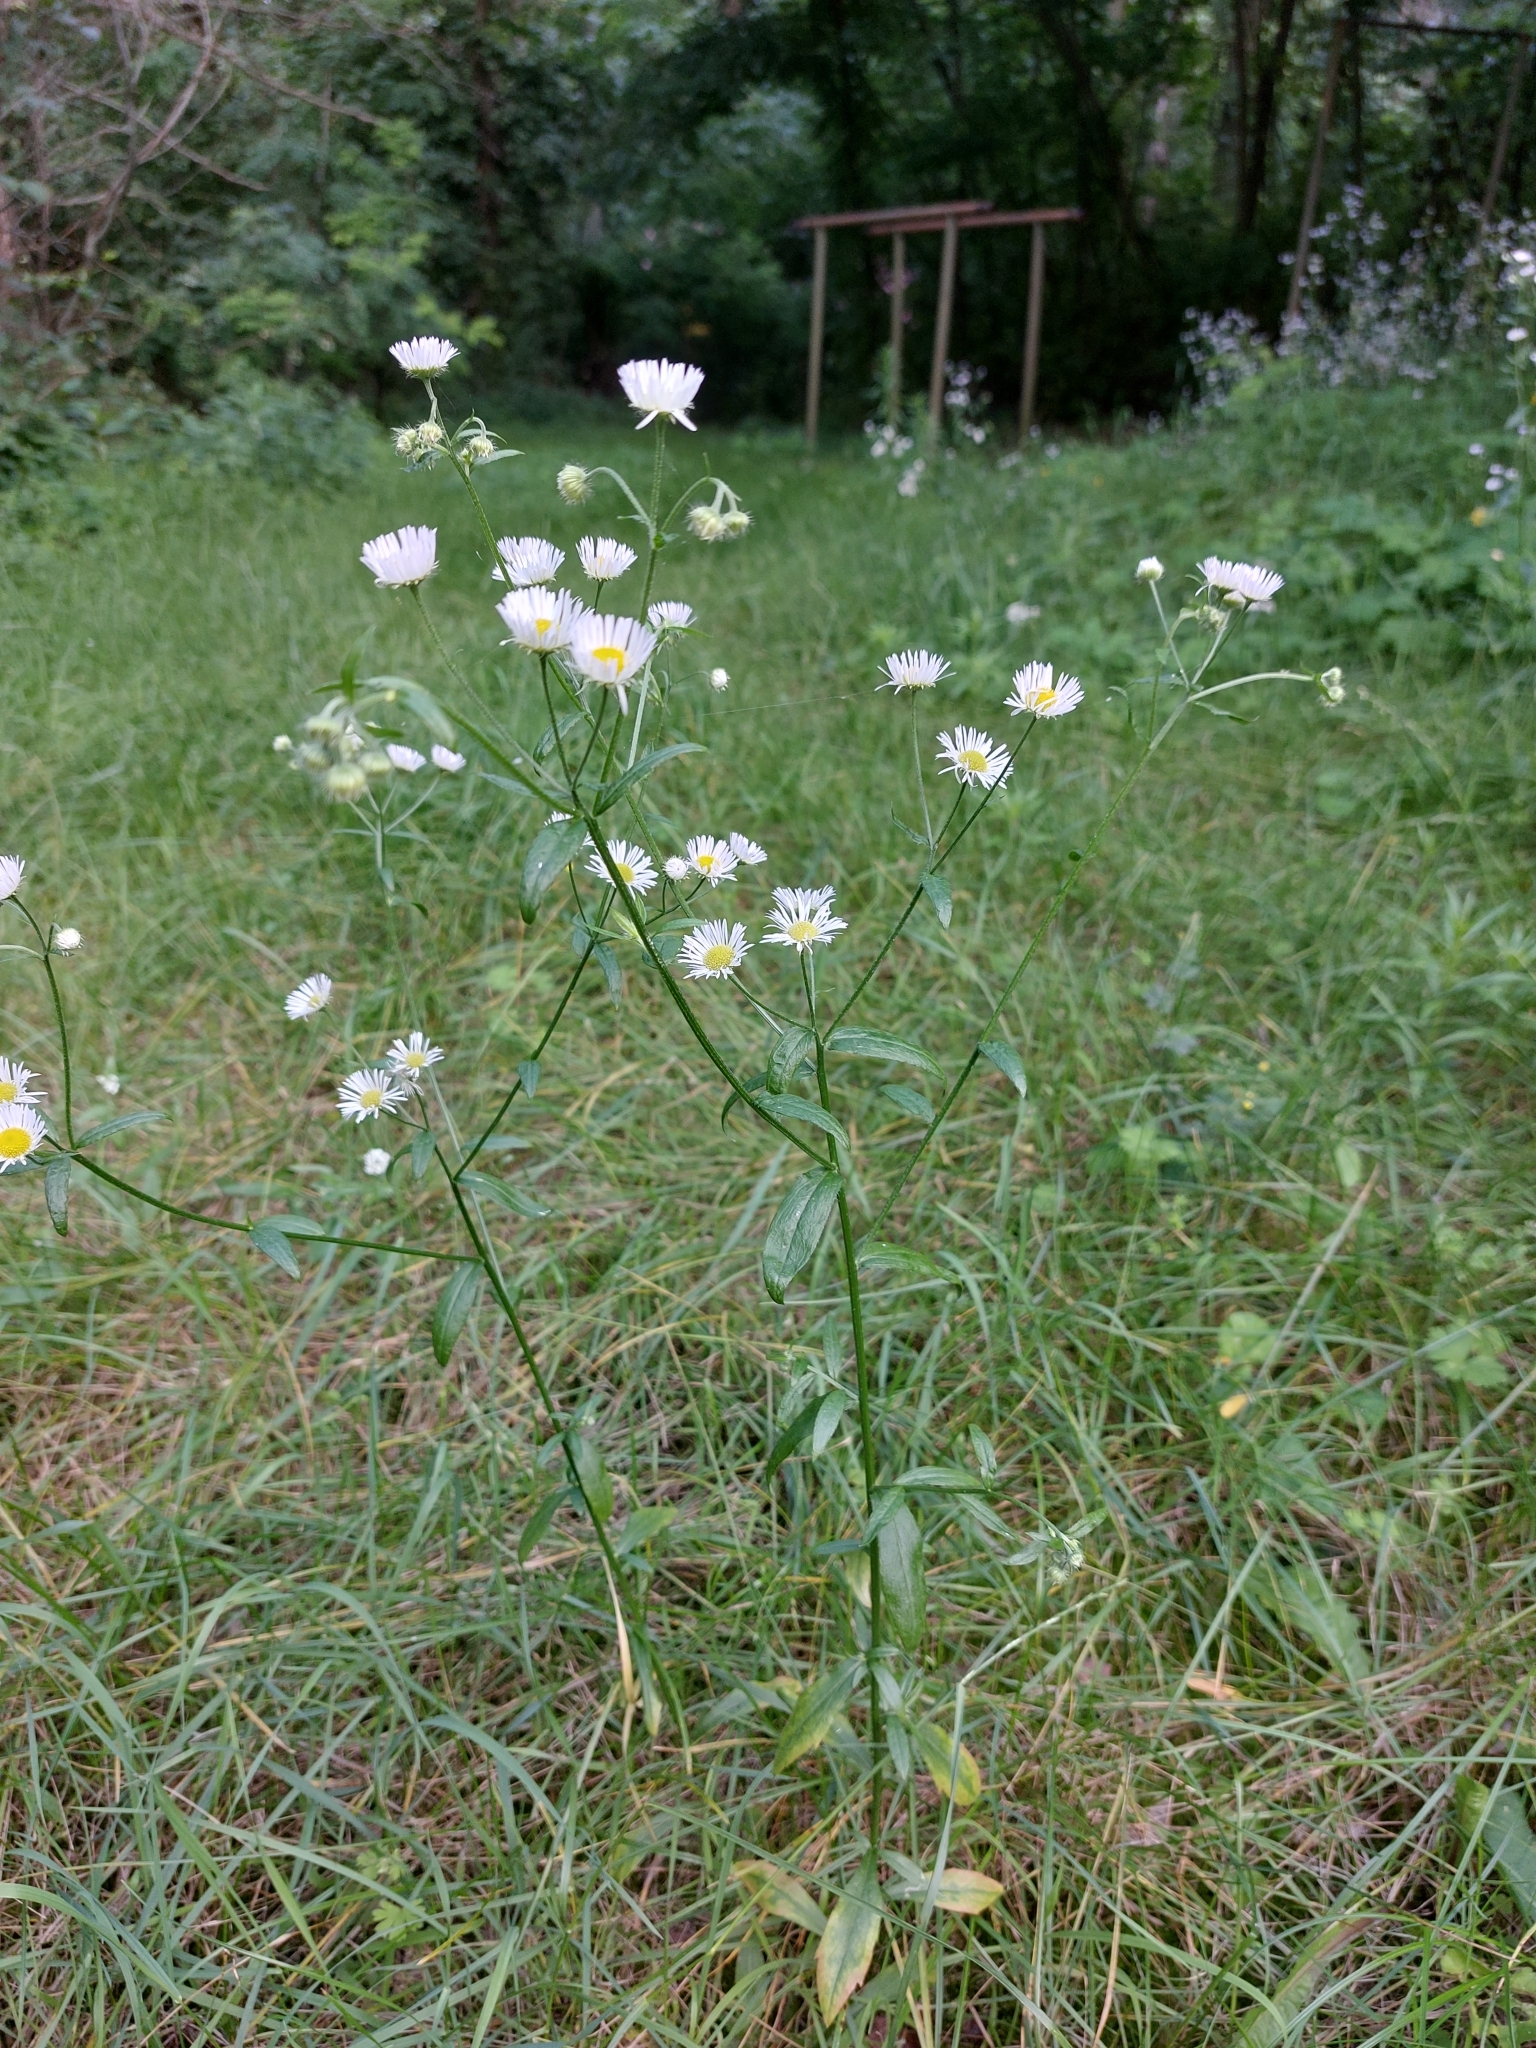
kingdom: Plantae
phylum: Tracheophyta
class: Magnoliopsida
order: Asterales
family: Asteraceae
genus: Erigeron
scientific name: Erigeron annuus
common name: Tall fleabane
